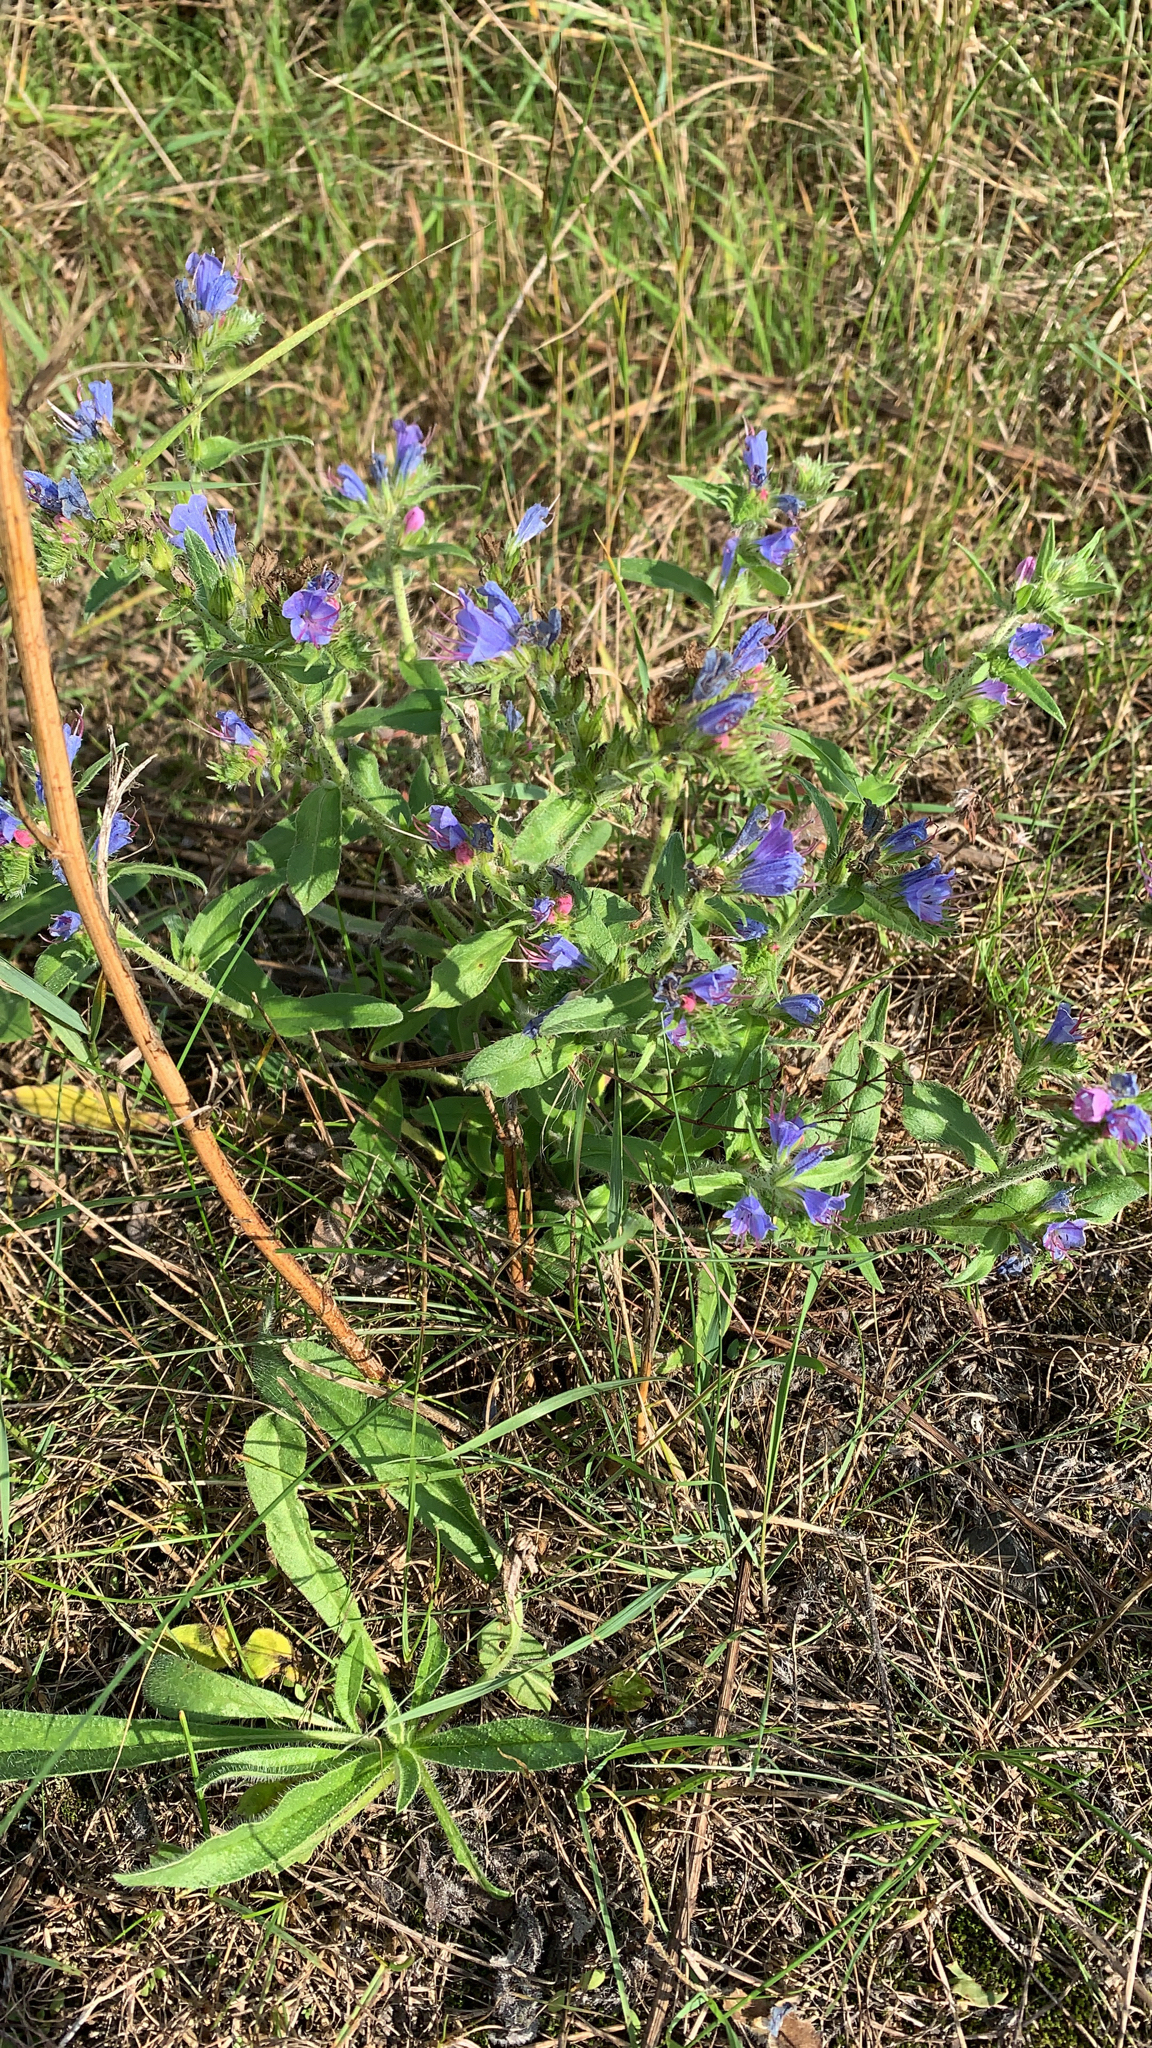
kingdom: Plantae
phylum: Tracheophyta
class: Magnoliopsida
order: Boraginales
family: Boraginaceae
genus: Echium
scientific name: Echium vulgare
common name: Common viper's bugloss
